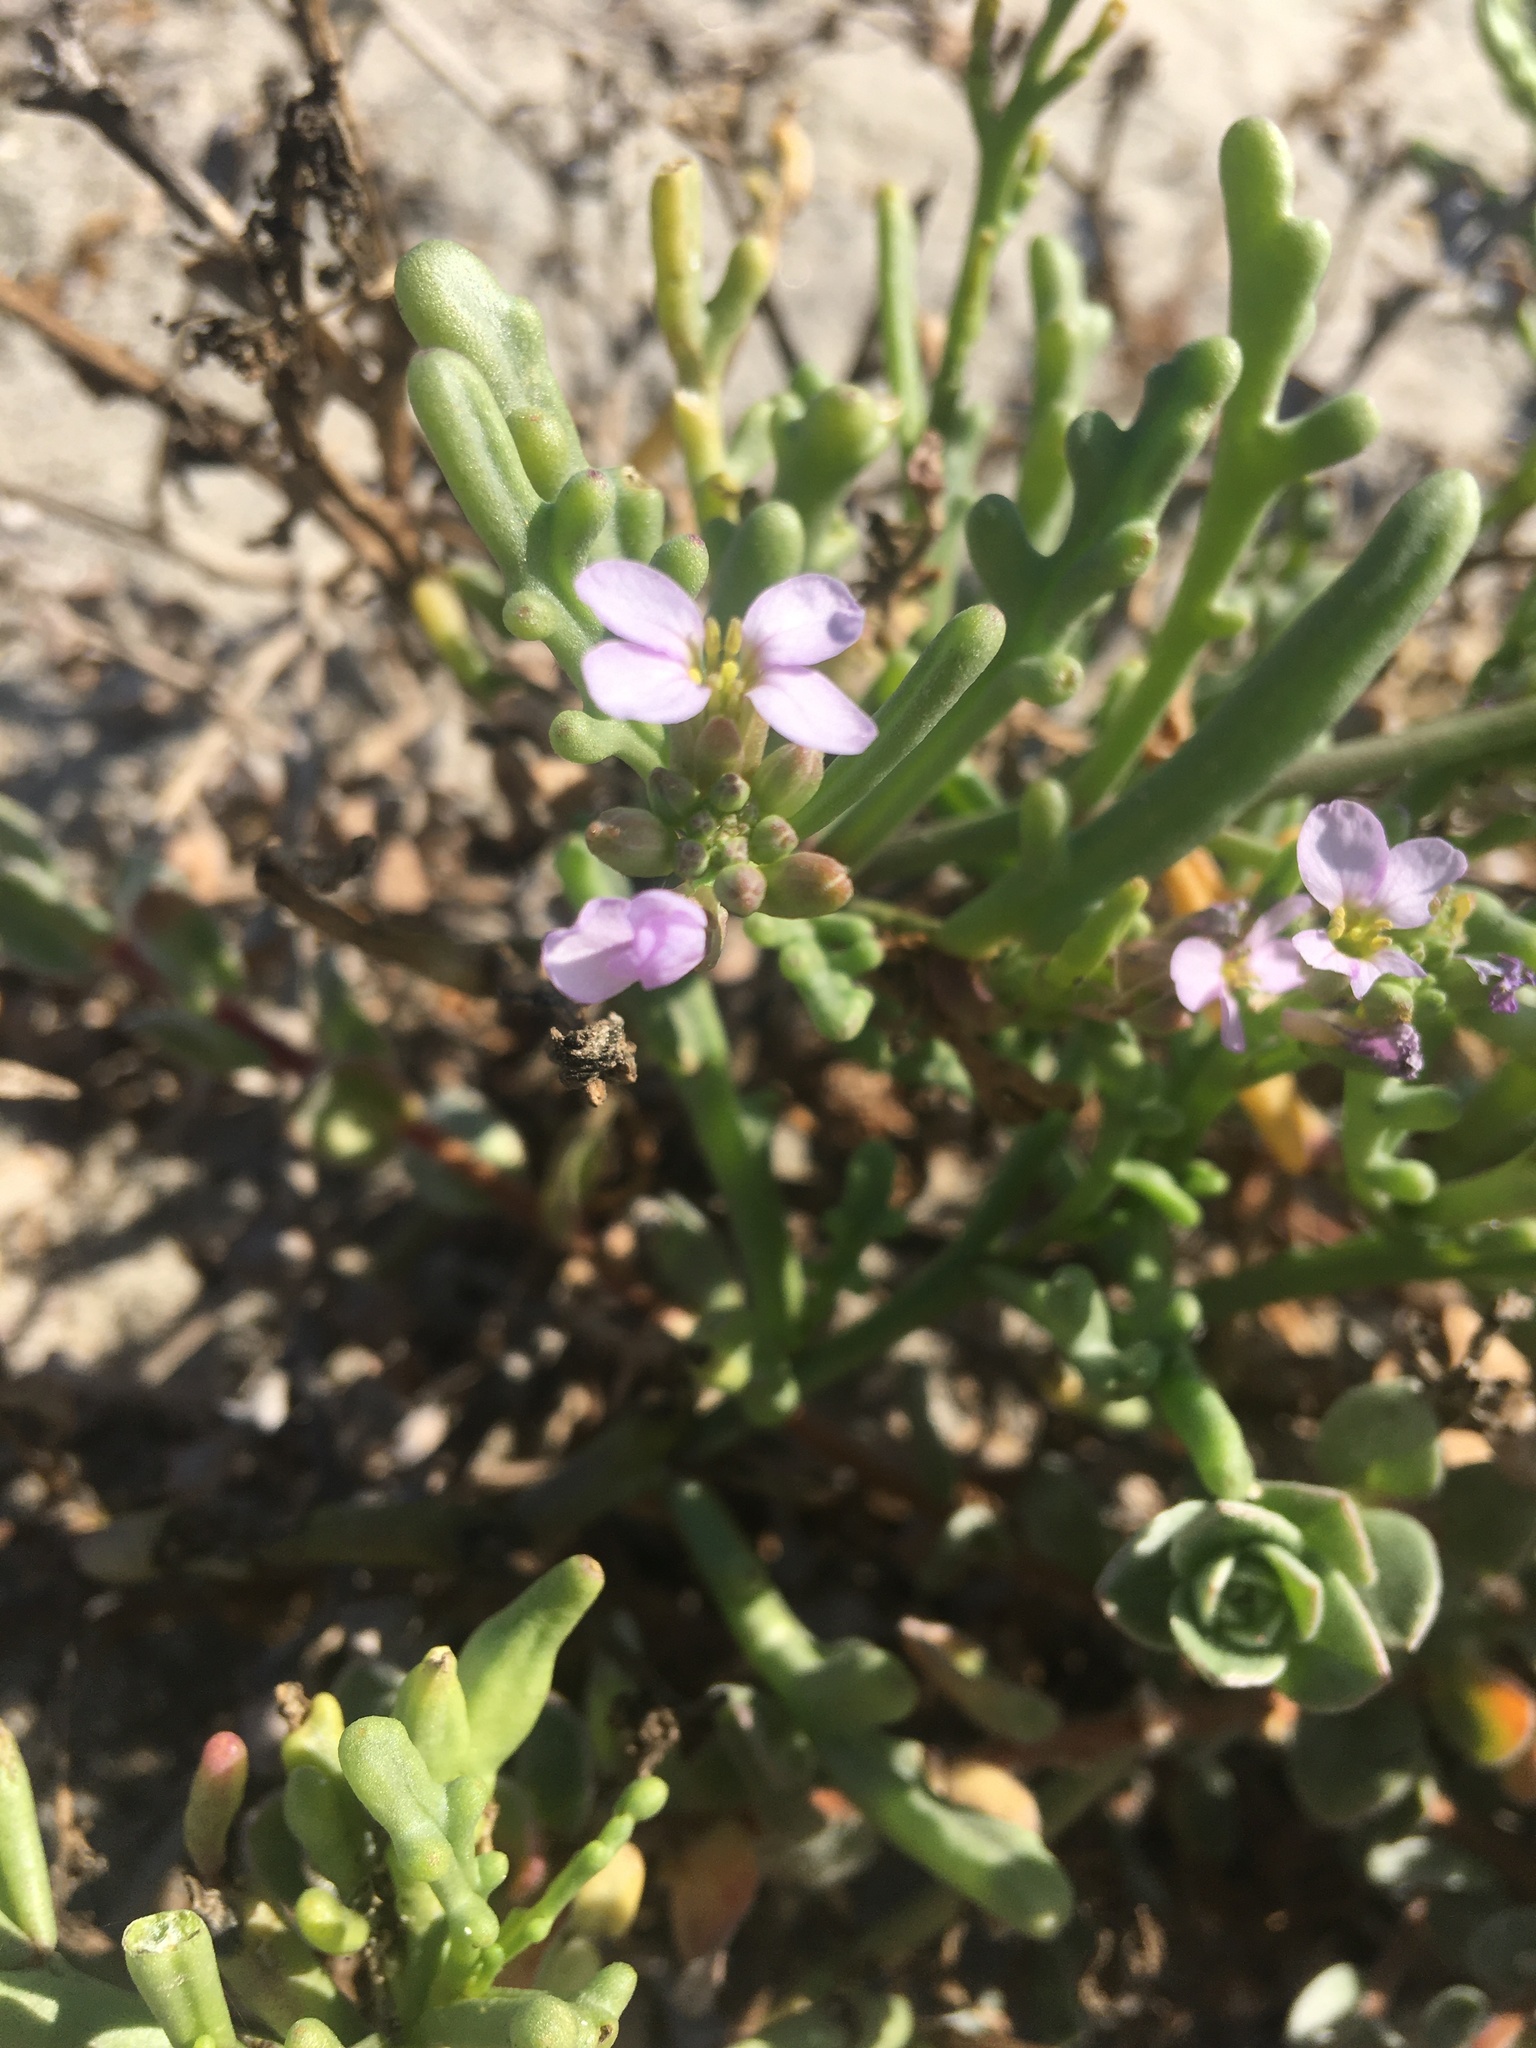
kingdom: Plantae
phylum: Tracheophyta
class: Magnoliopsida
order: Brassicales
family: Brassicaceae
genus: Cakile
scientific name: Cakile maritima
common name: Sea rocket
